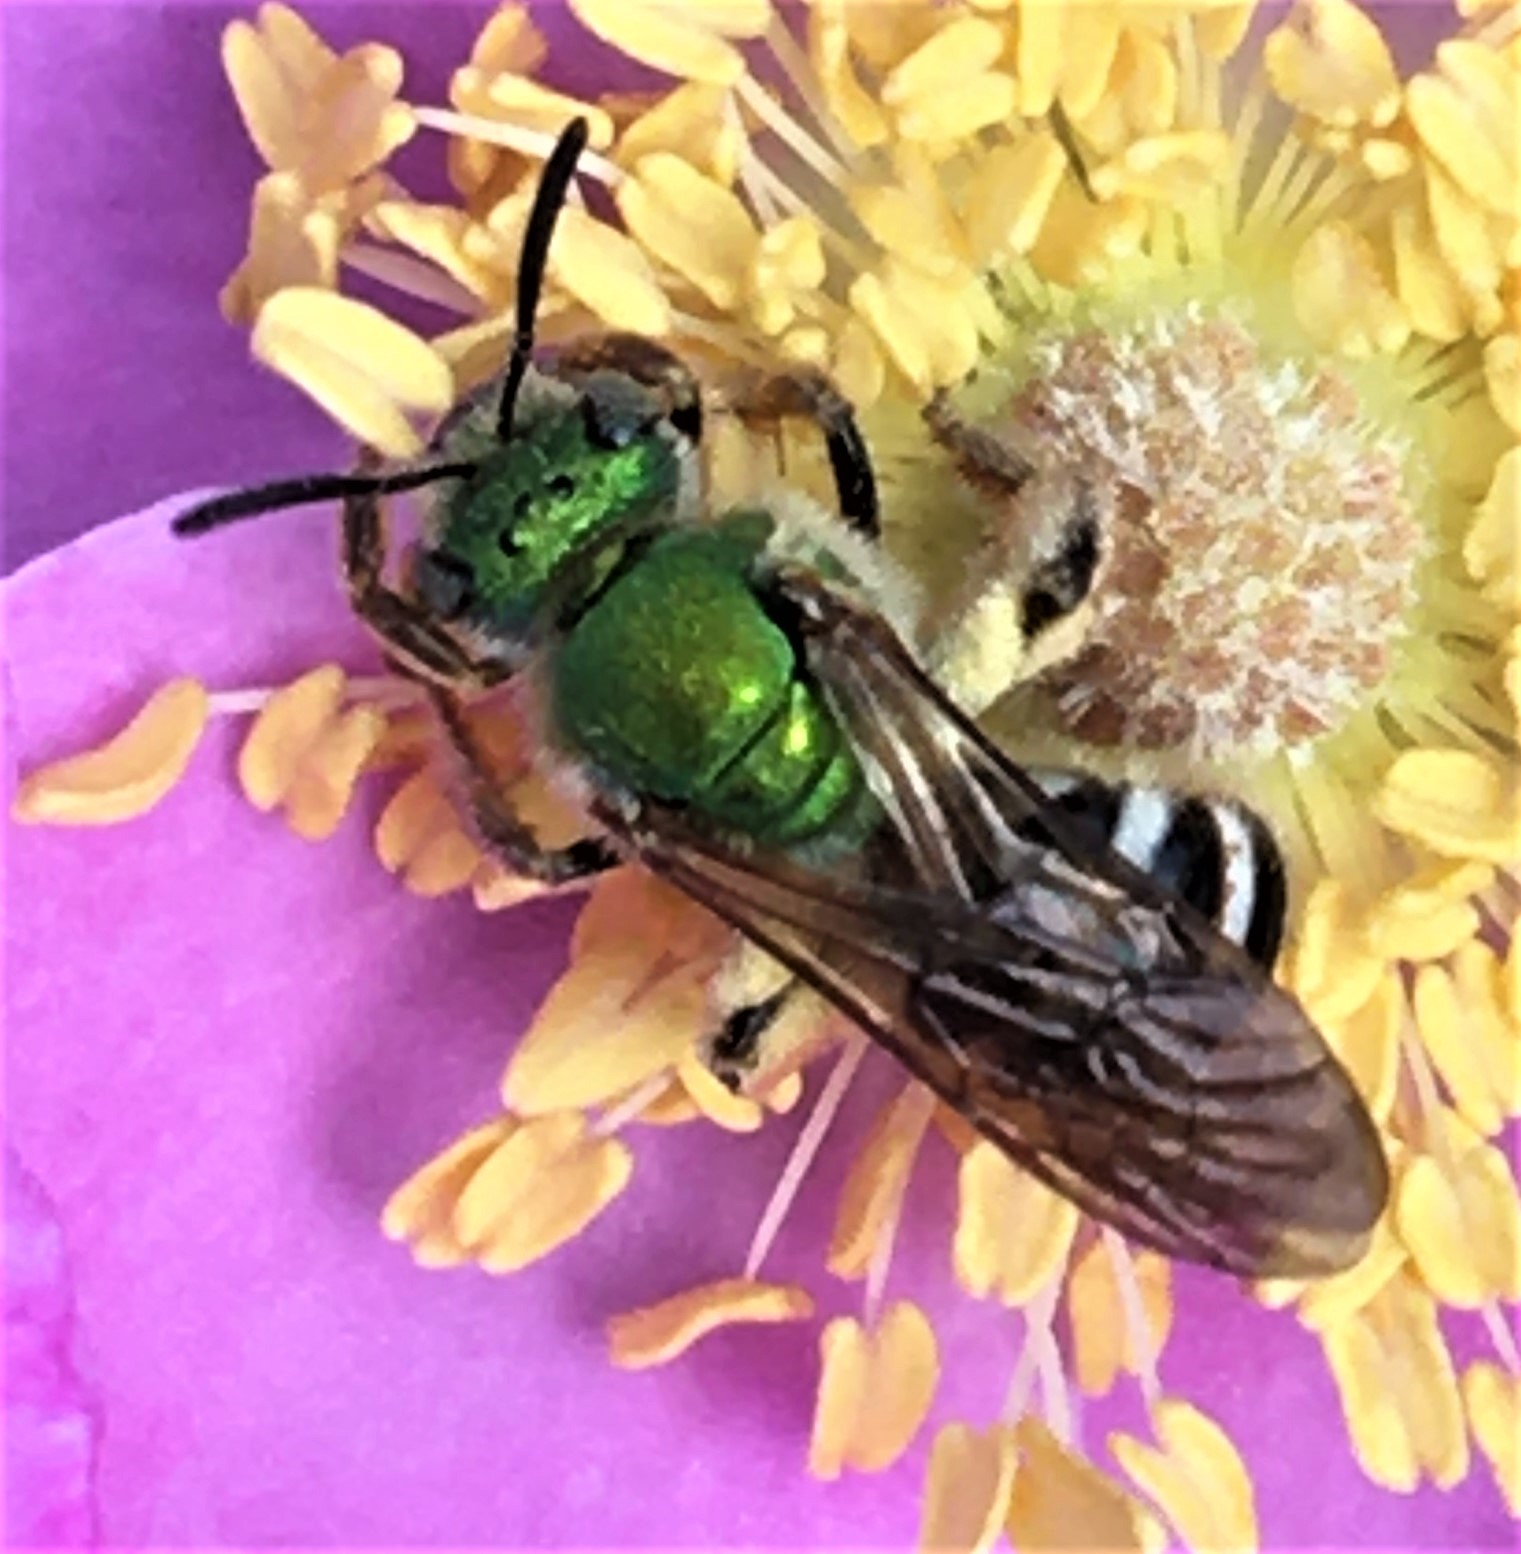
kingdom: Animalia
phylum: Arthropoda
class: Insecta
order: Hymenoptera
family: Halictidae
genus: Agapostemon
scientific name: Agapostemon virescens
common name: Bicolored striped sweat bee
